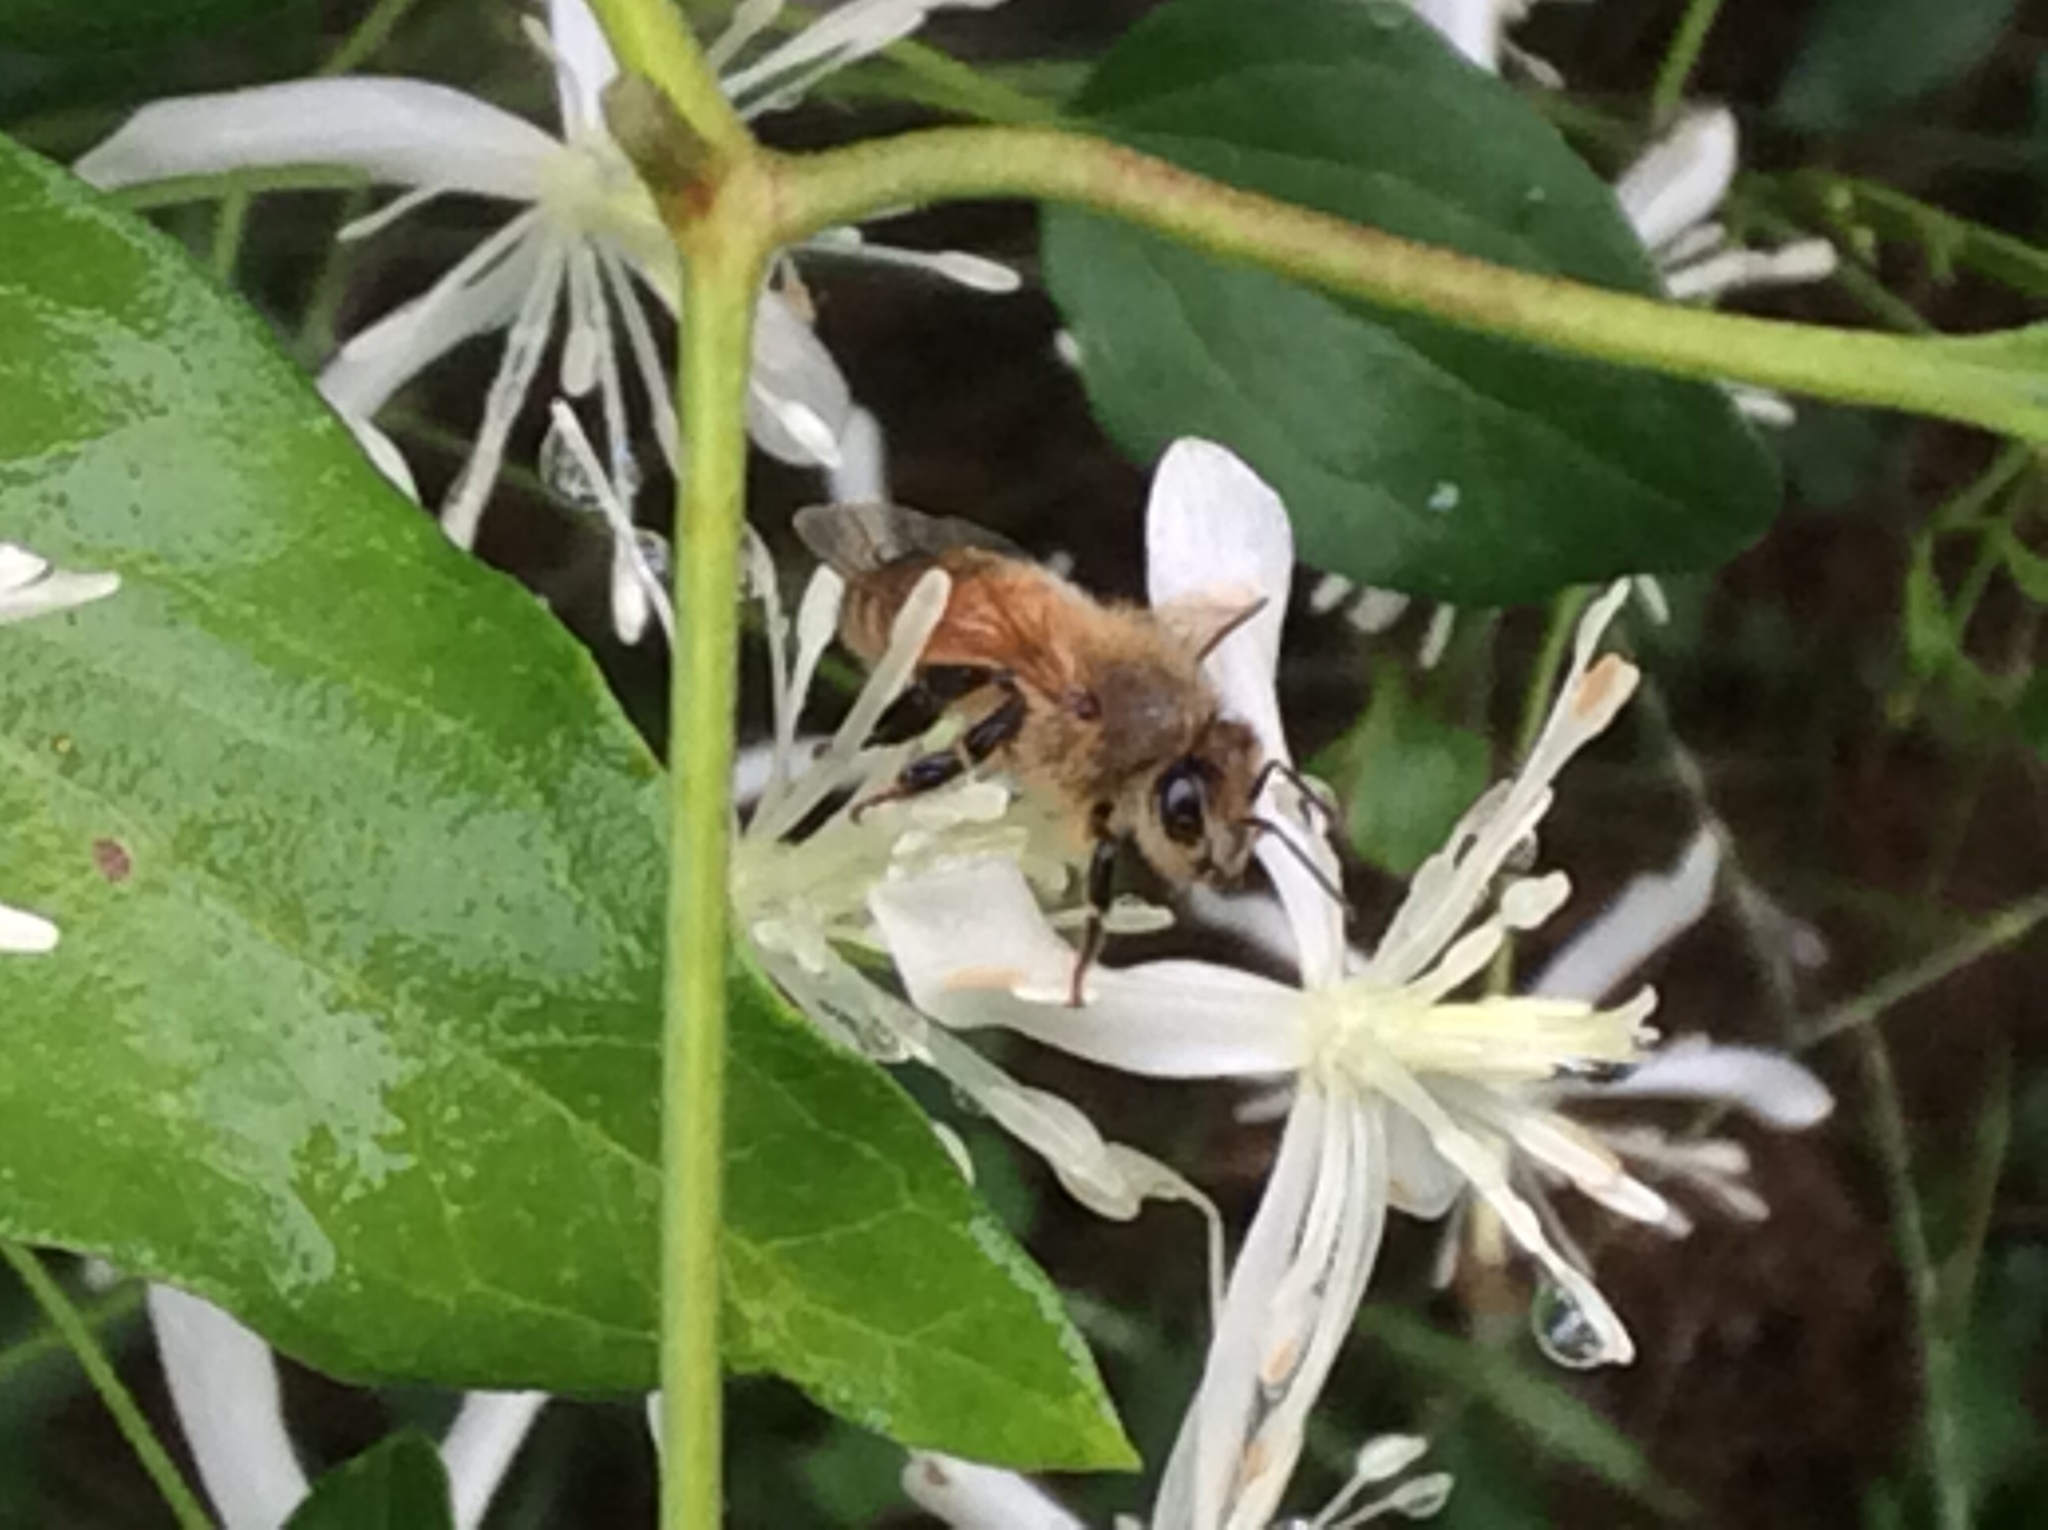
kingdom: Animalia
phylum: Arthropoda
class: Insecta
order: Hymenoptera
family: Apidae
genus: Apis
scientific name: Apis mellifera
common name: Honey bee
